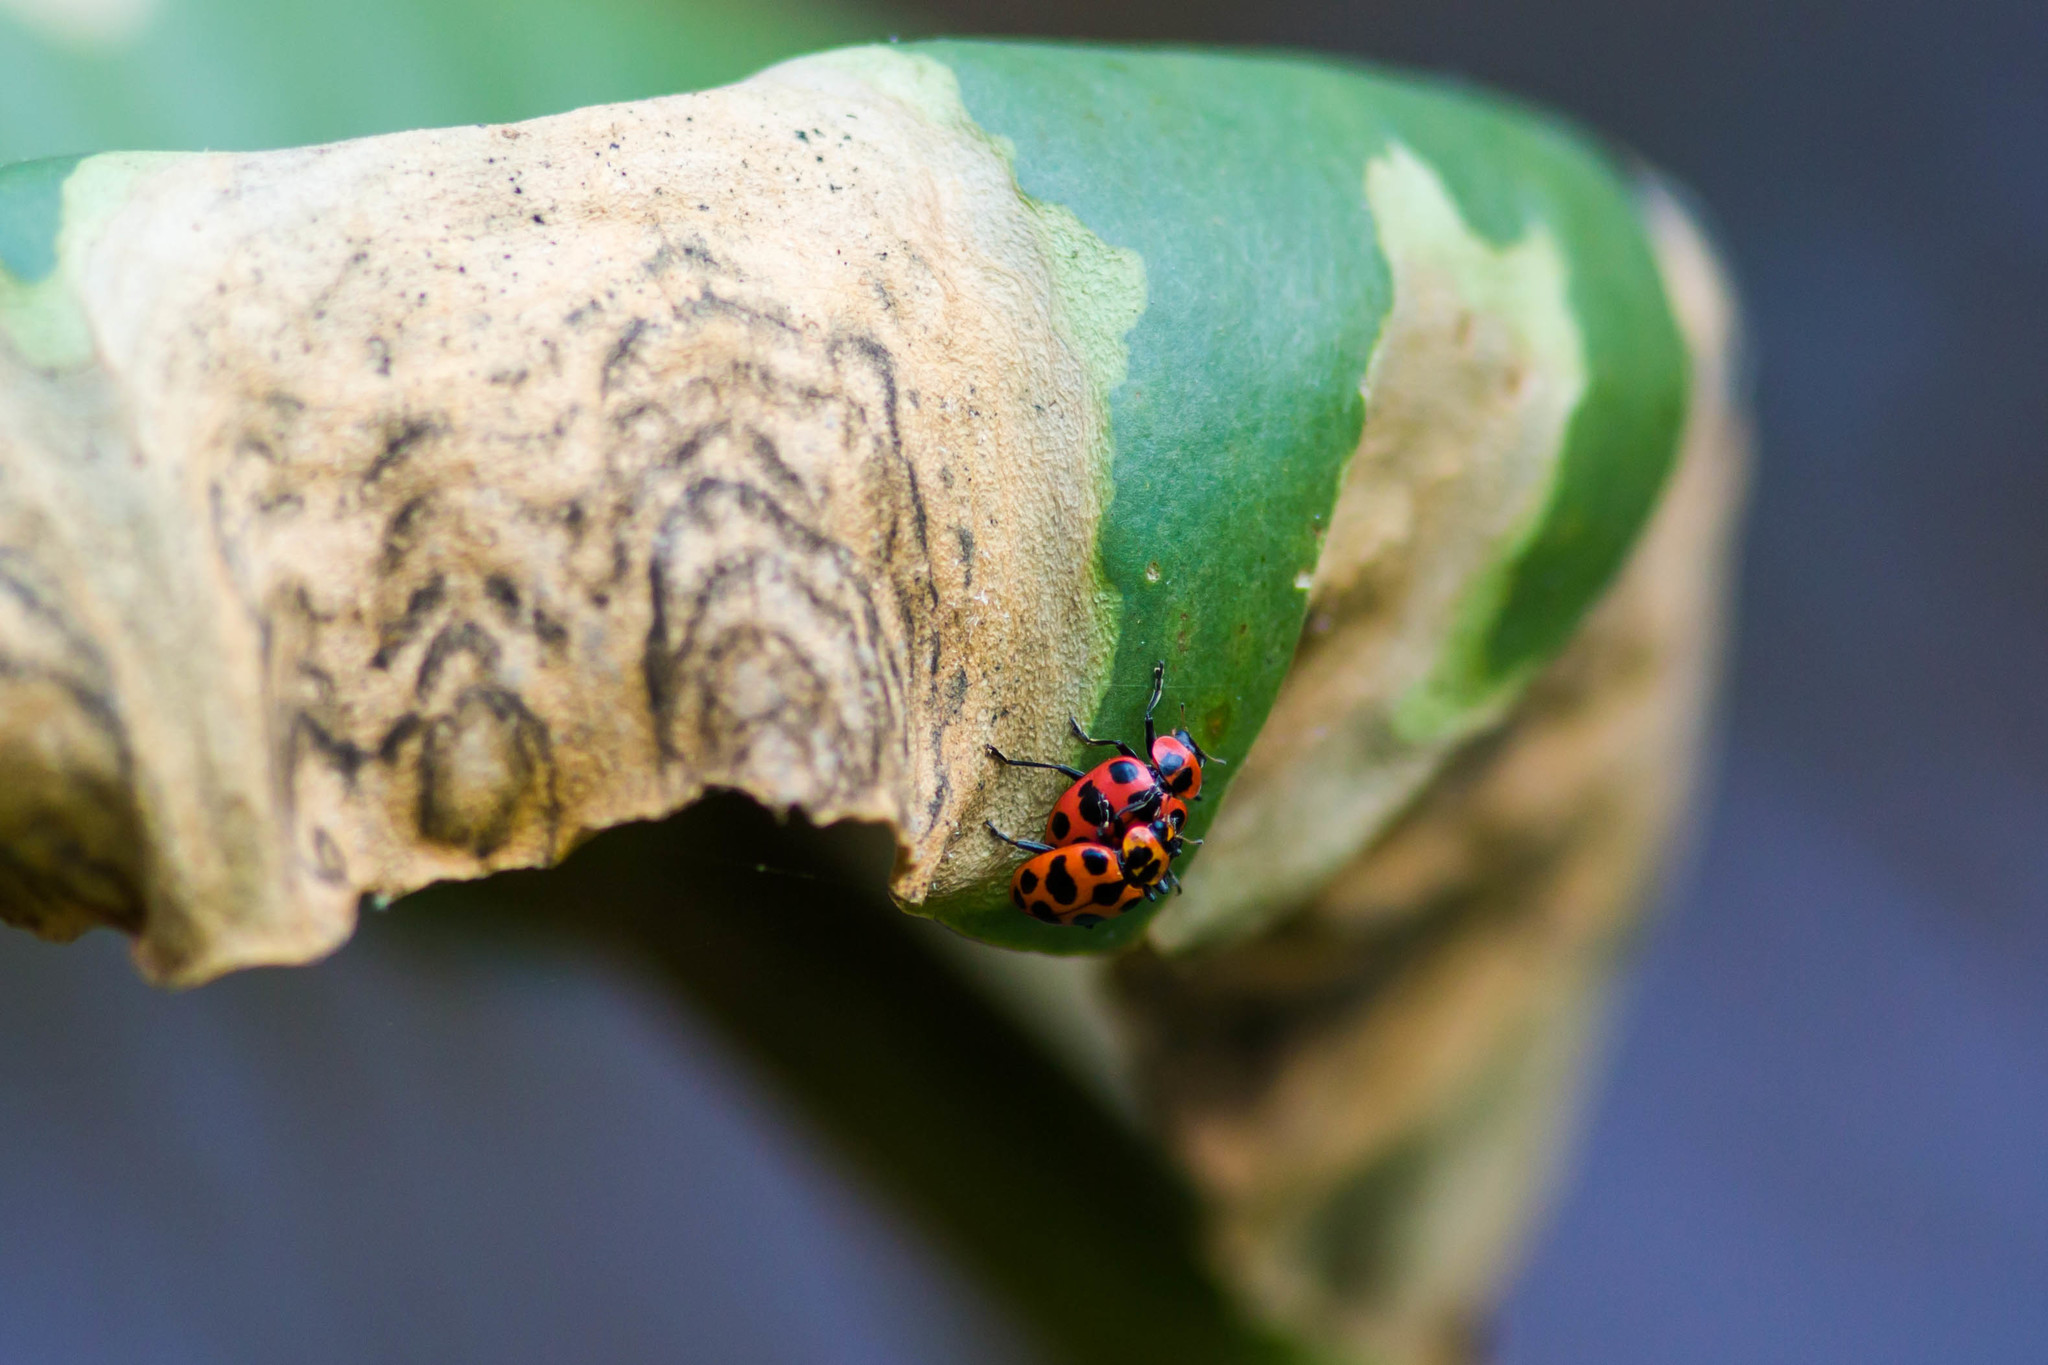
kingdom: Animalia
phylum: Arthropoda
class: Insecta
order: Coleoptera
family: Coccinellidae
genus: Coleomegilla
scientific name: Coleomegilla maculata
